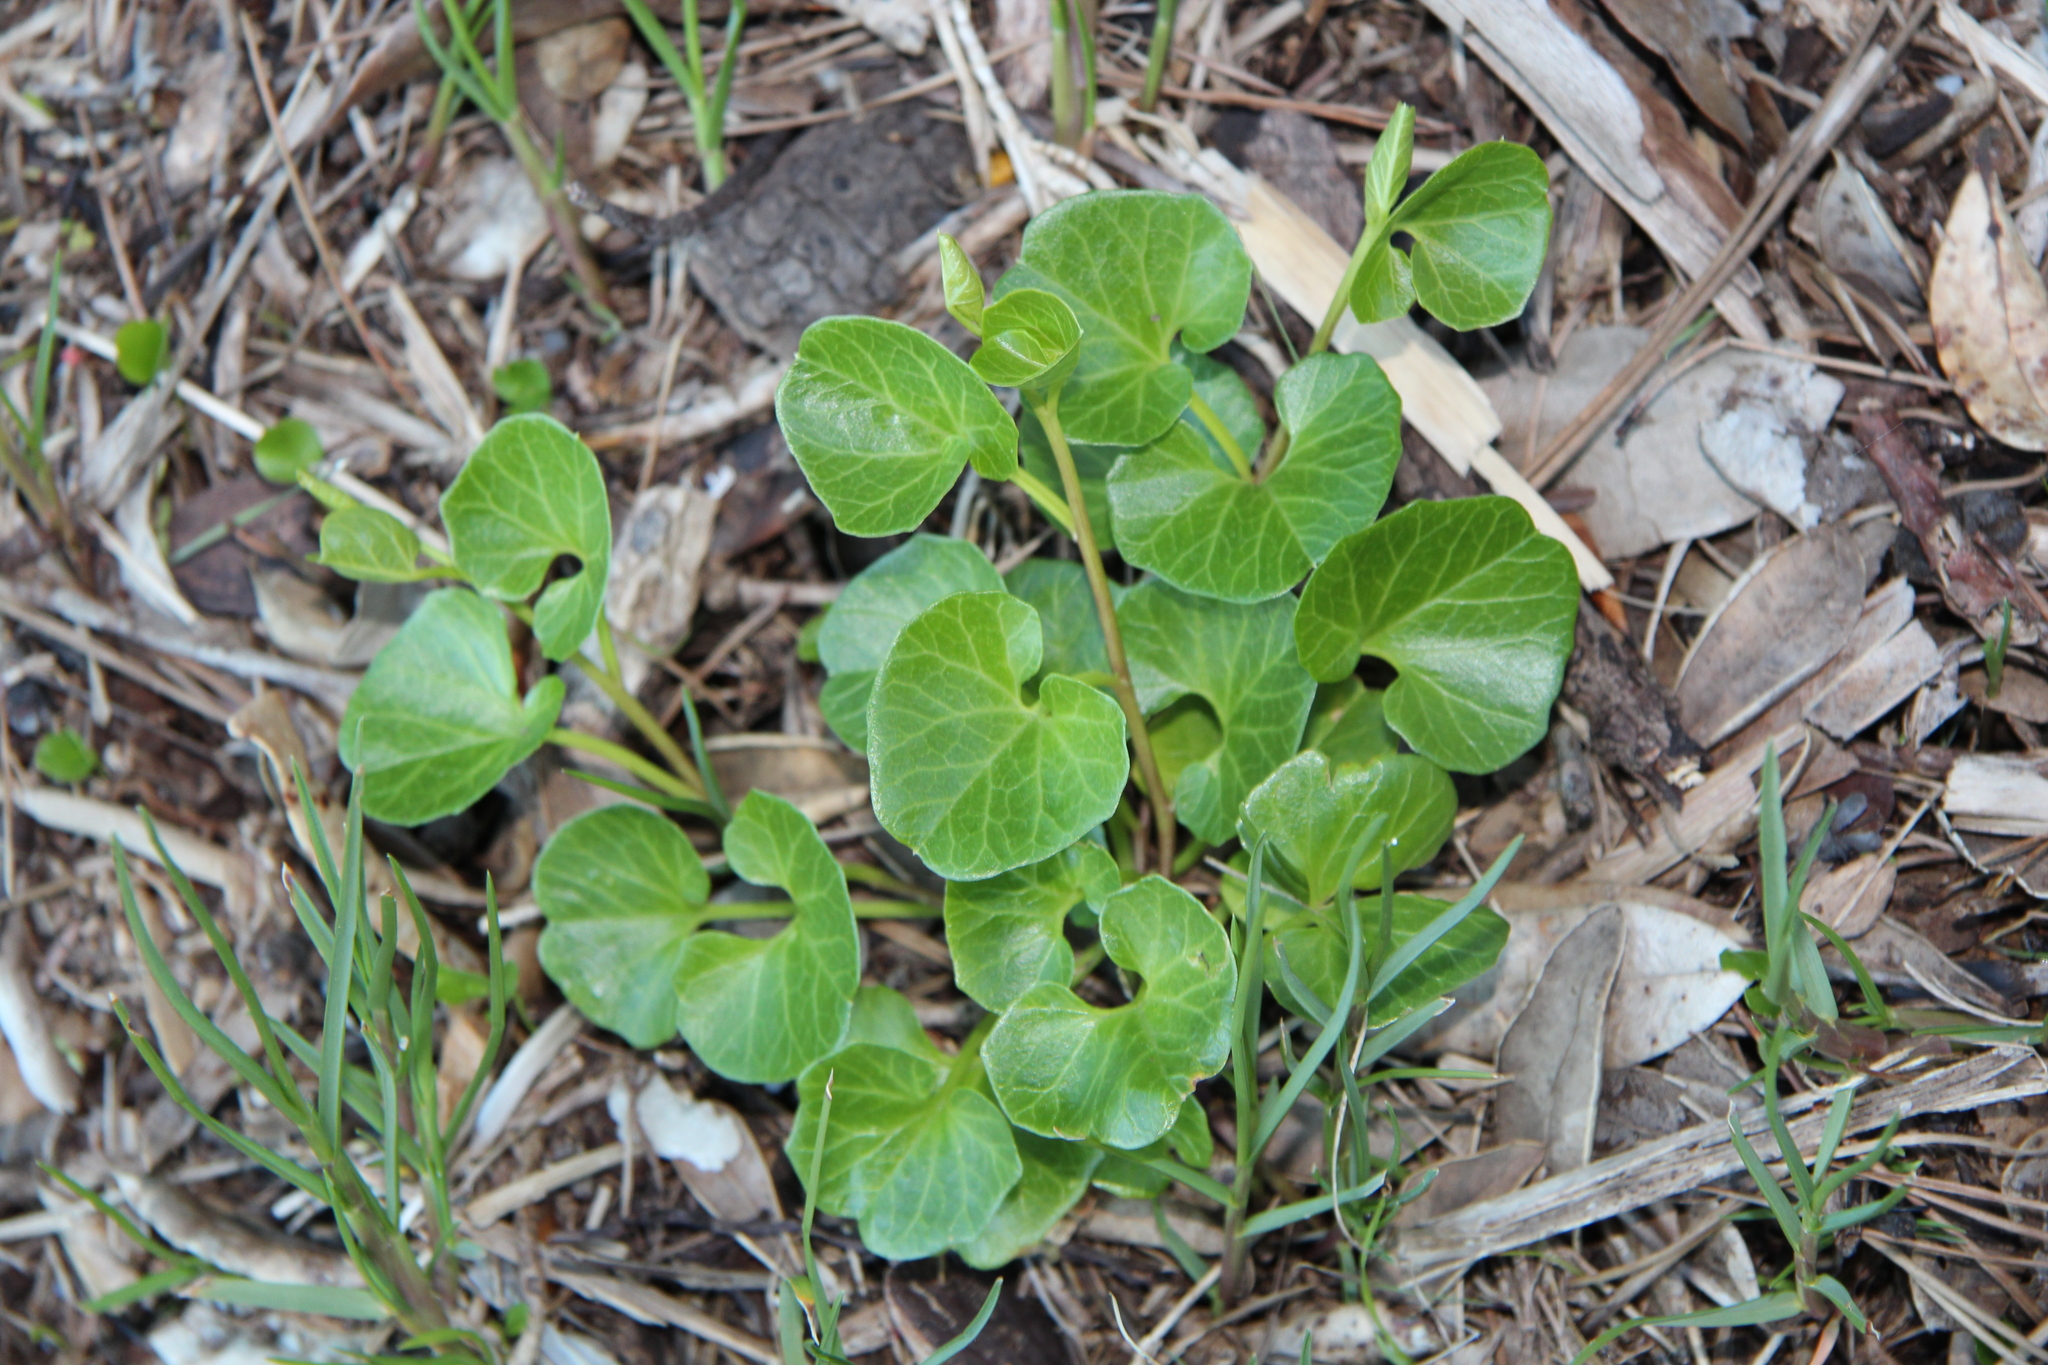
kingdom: Plantae
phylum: Tracheophyta
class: Magnoliopsida
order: Solanales
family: Convolvulaceae
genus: Calystegia
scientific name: Calystegia soldanella
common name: Sea bindweed
